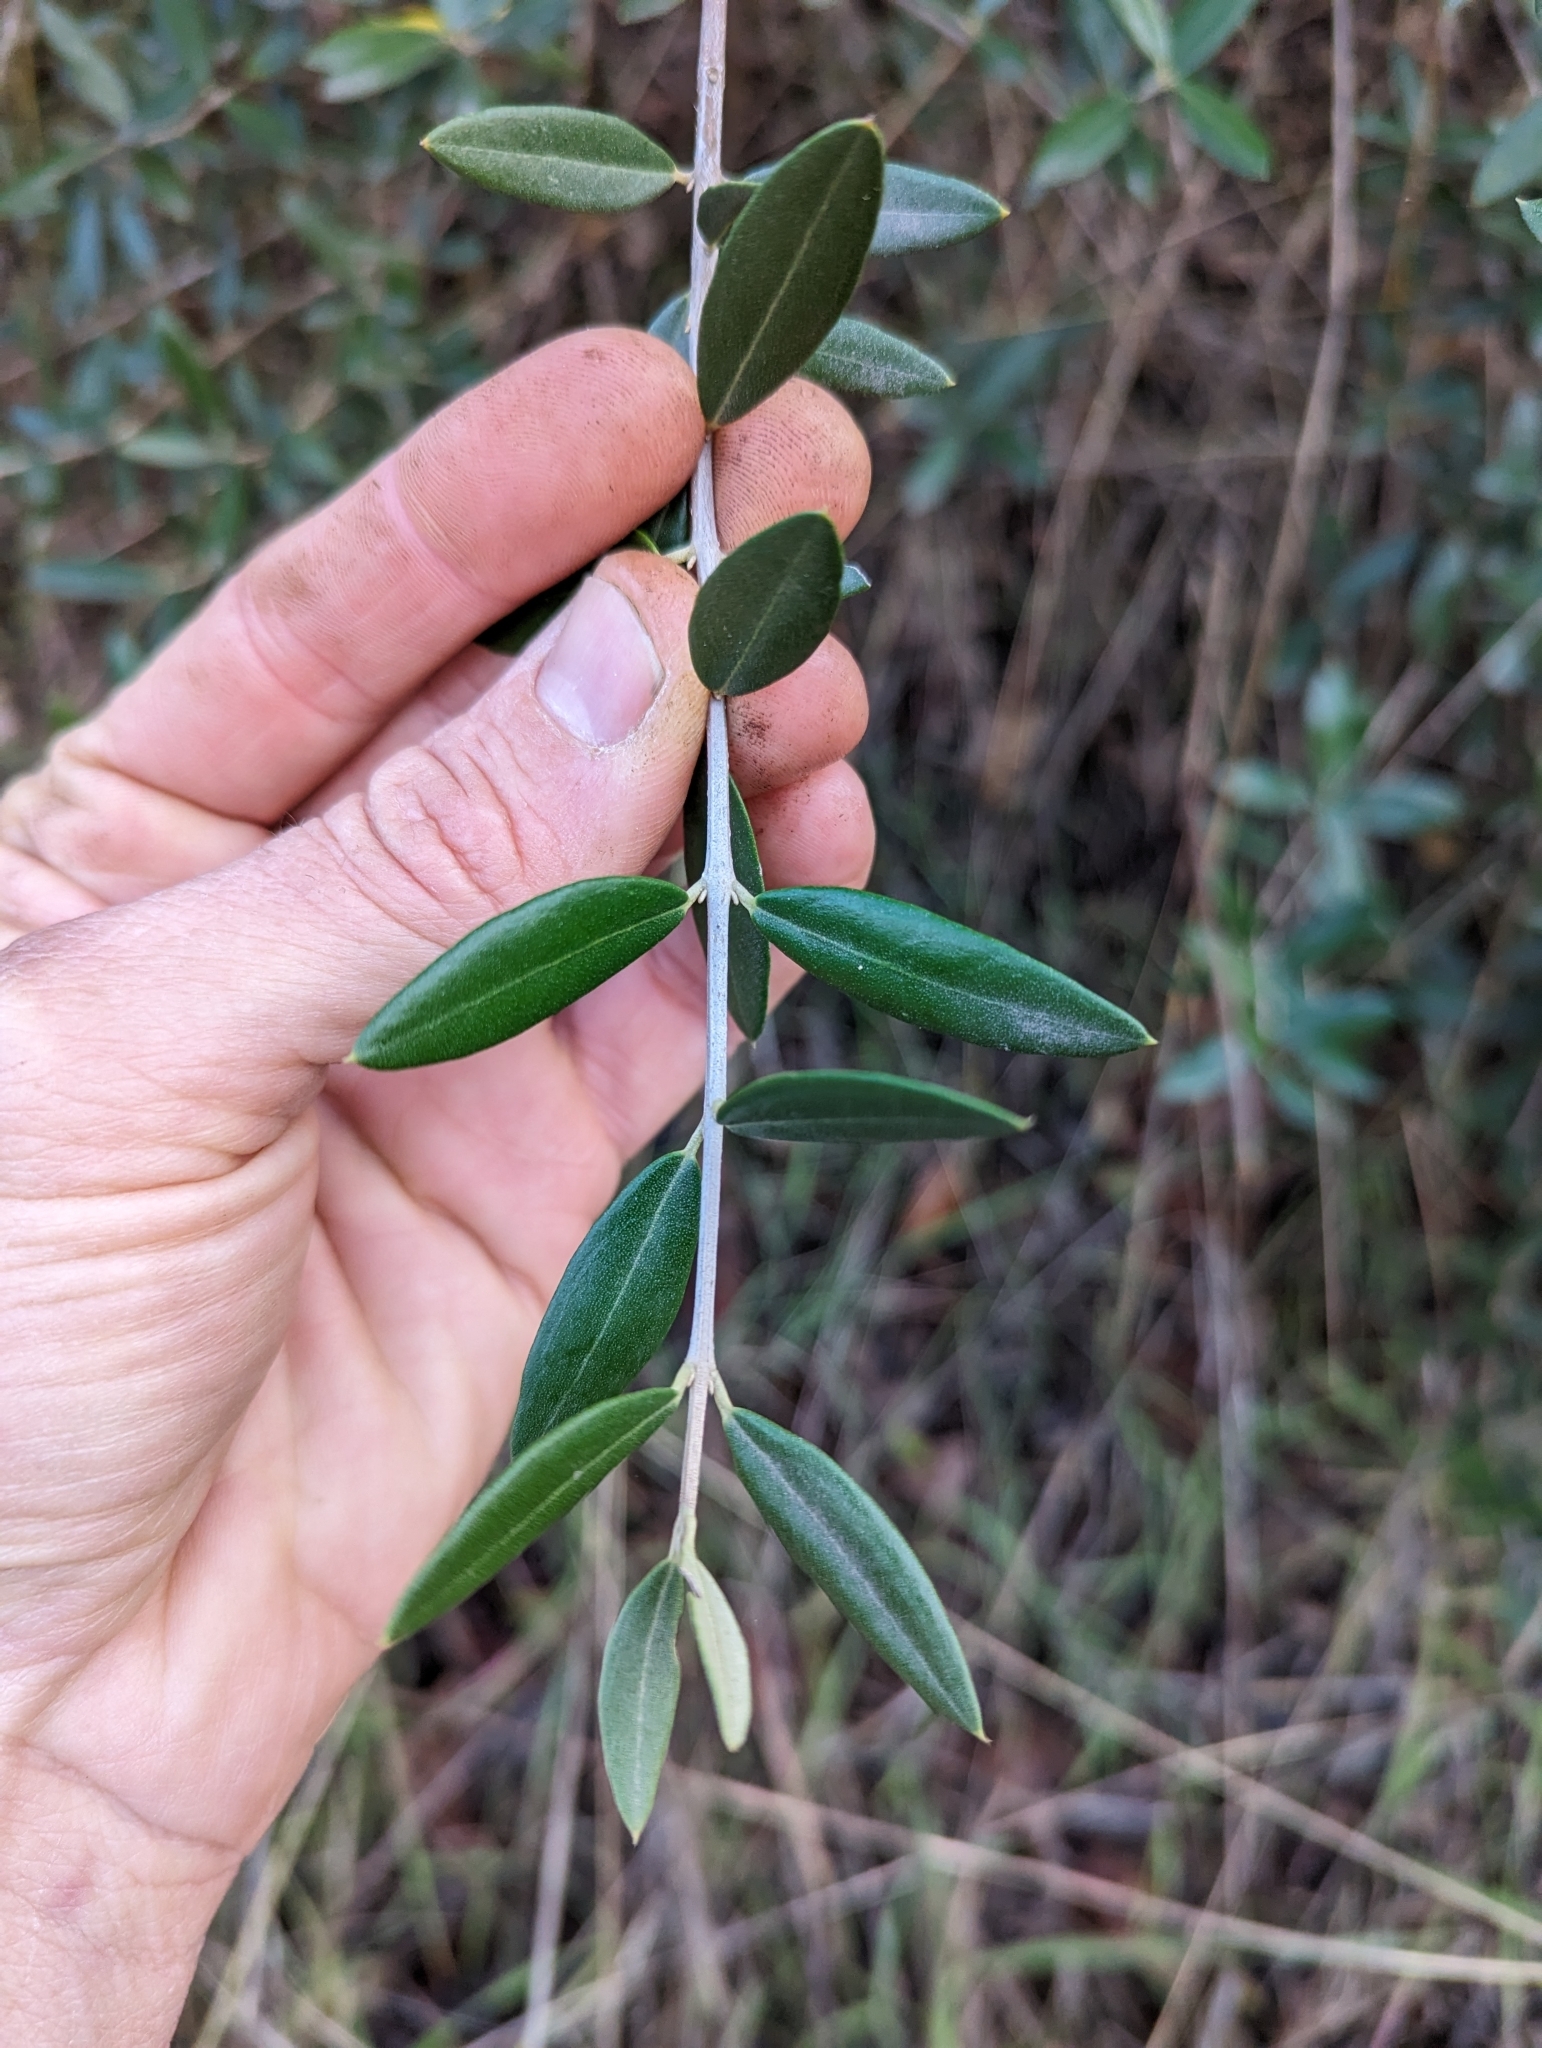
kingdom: Plantae
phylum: Tracheophyta
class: Magnoliopsida
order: Lamiales
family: Oleaceae
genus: Olea
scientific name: Olea europaea
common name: Olive
